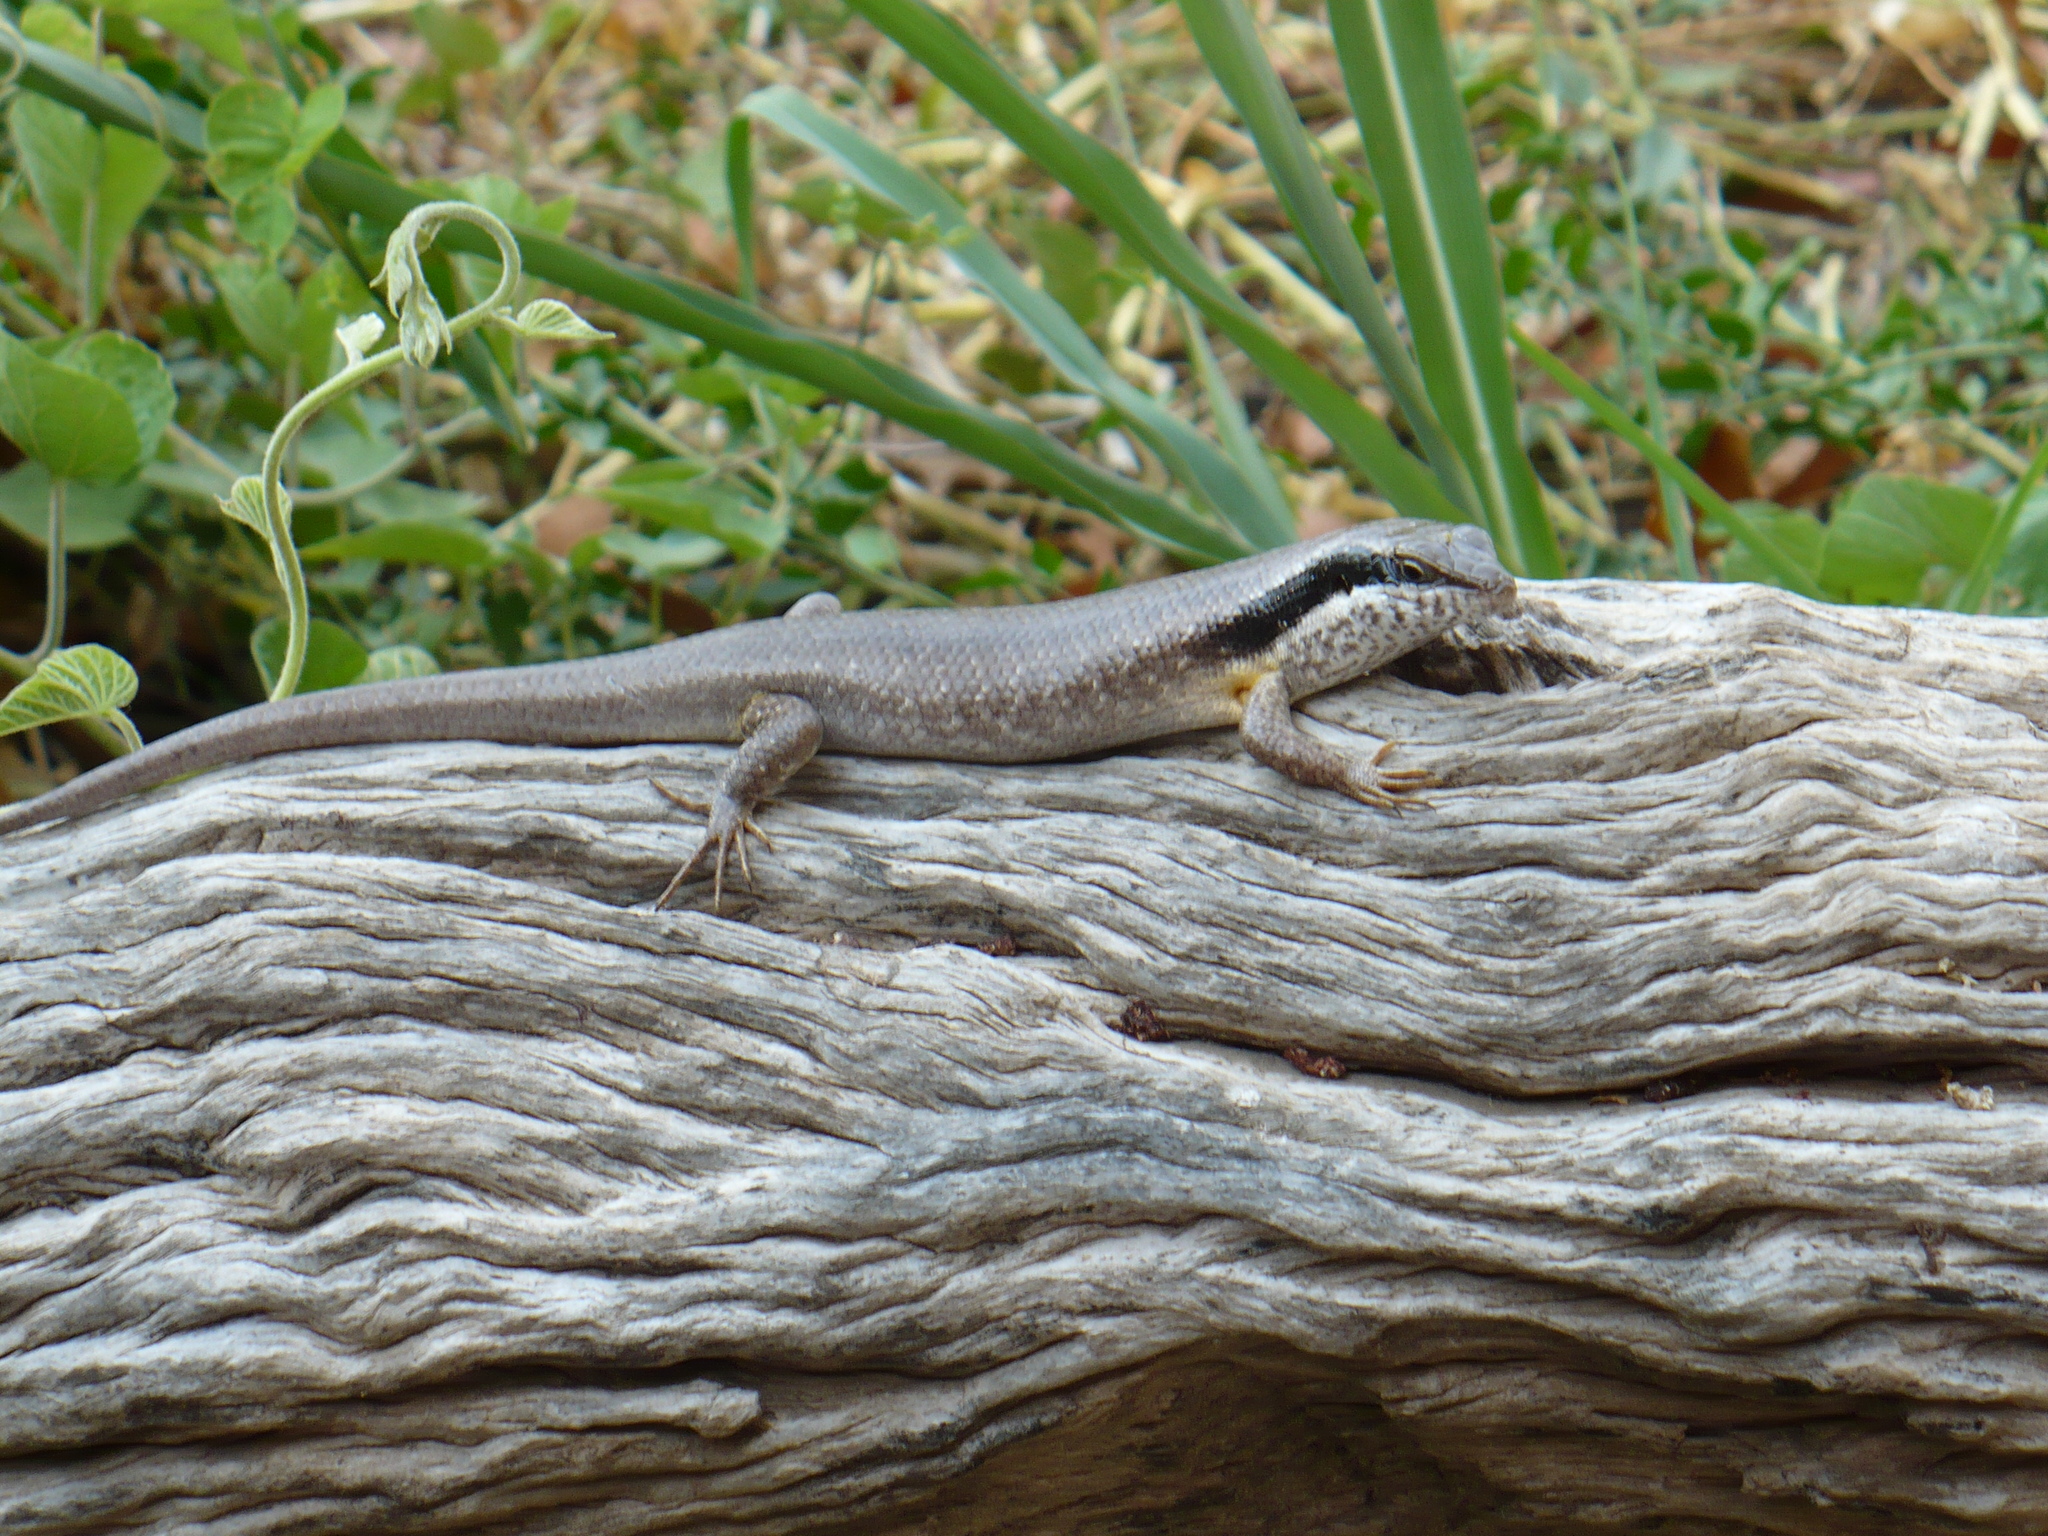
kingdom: Animalia
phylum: Chordata
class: Squamata
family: Scincidae
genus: Trachylepis
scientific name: Trachylepis binotata
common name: Bocage's mabuya
